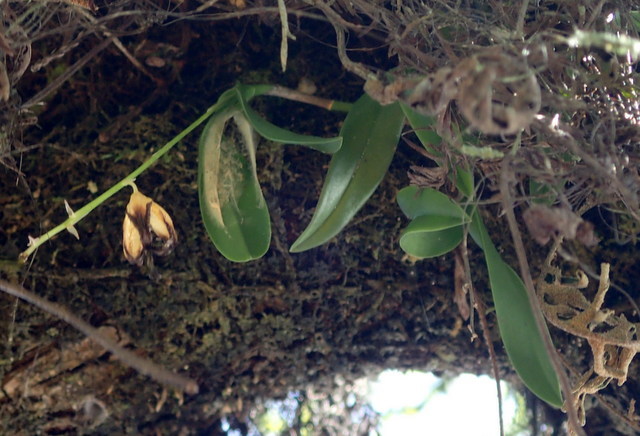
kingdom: Plantae
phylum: Tracheophyta
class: Liliopsida
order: Asparagales
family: Orchidaceae
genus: Epidendrum
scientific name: Epidendrum conopseum
